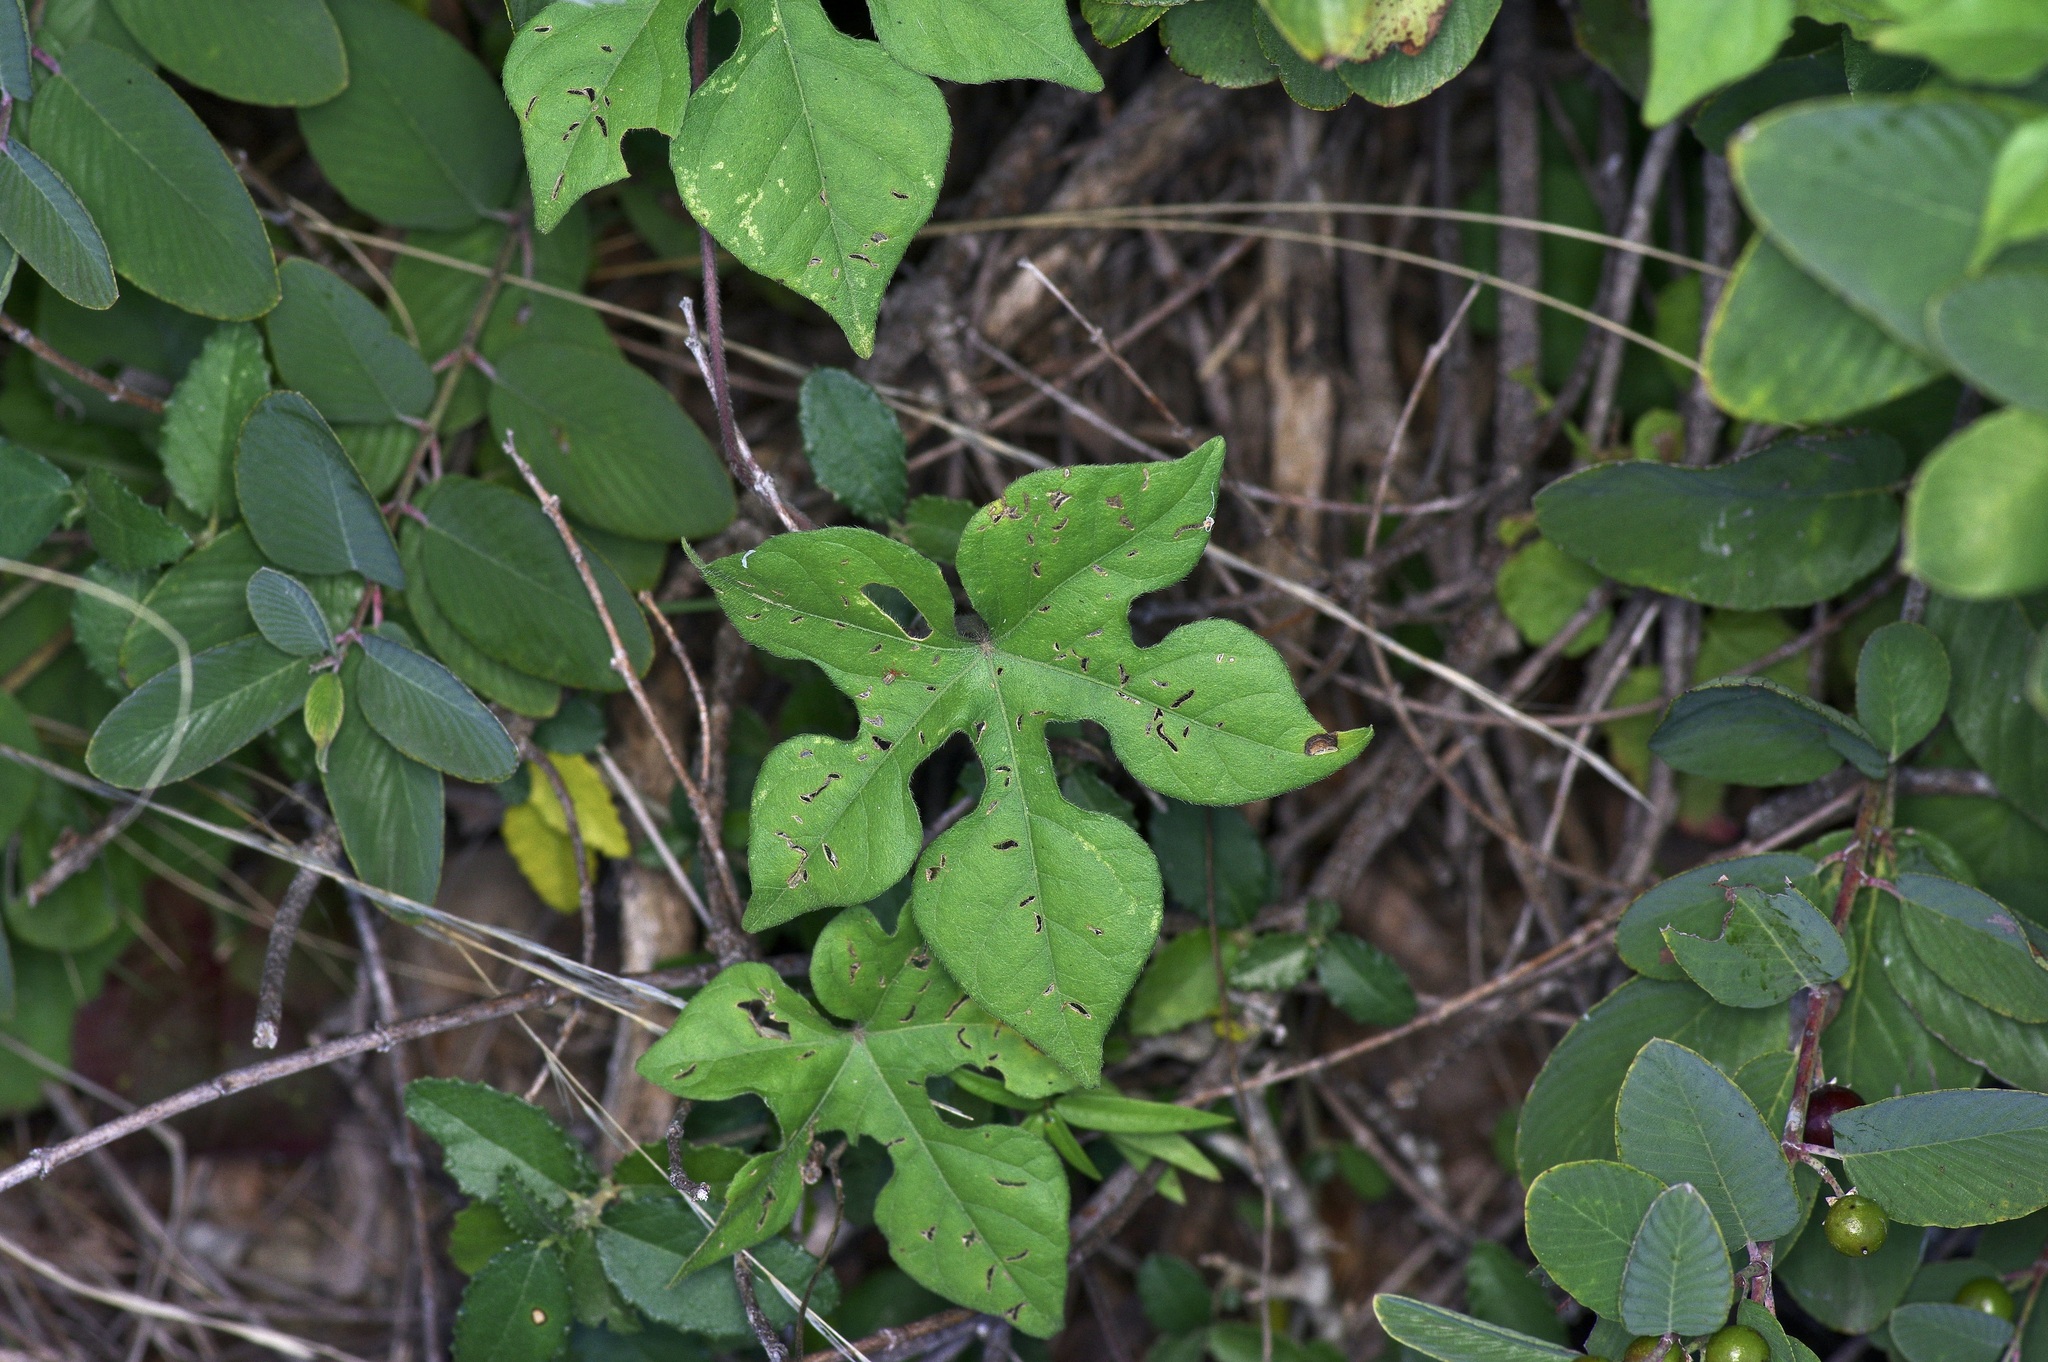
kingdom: Plantae
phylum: Tracheophyta
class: Magnoliopsida
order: Solanales
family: Convolvulaceae
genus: Ipomoea
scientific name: Ipomoea lindheimeri
